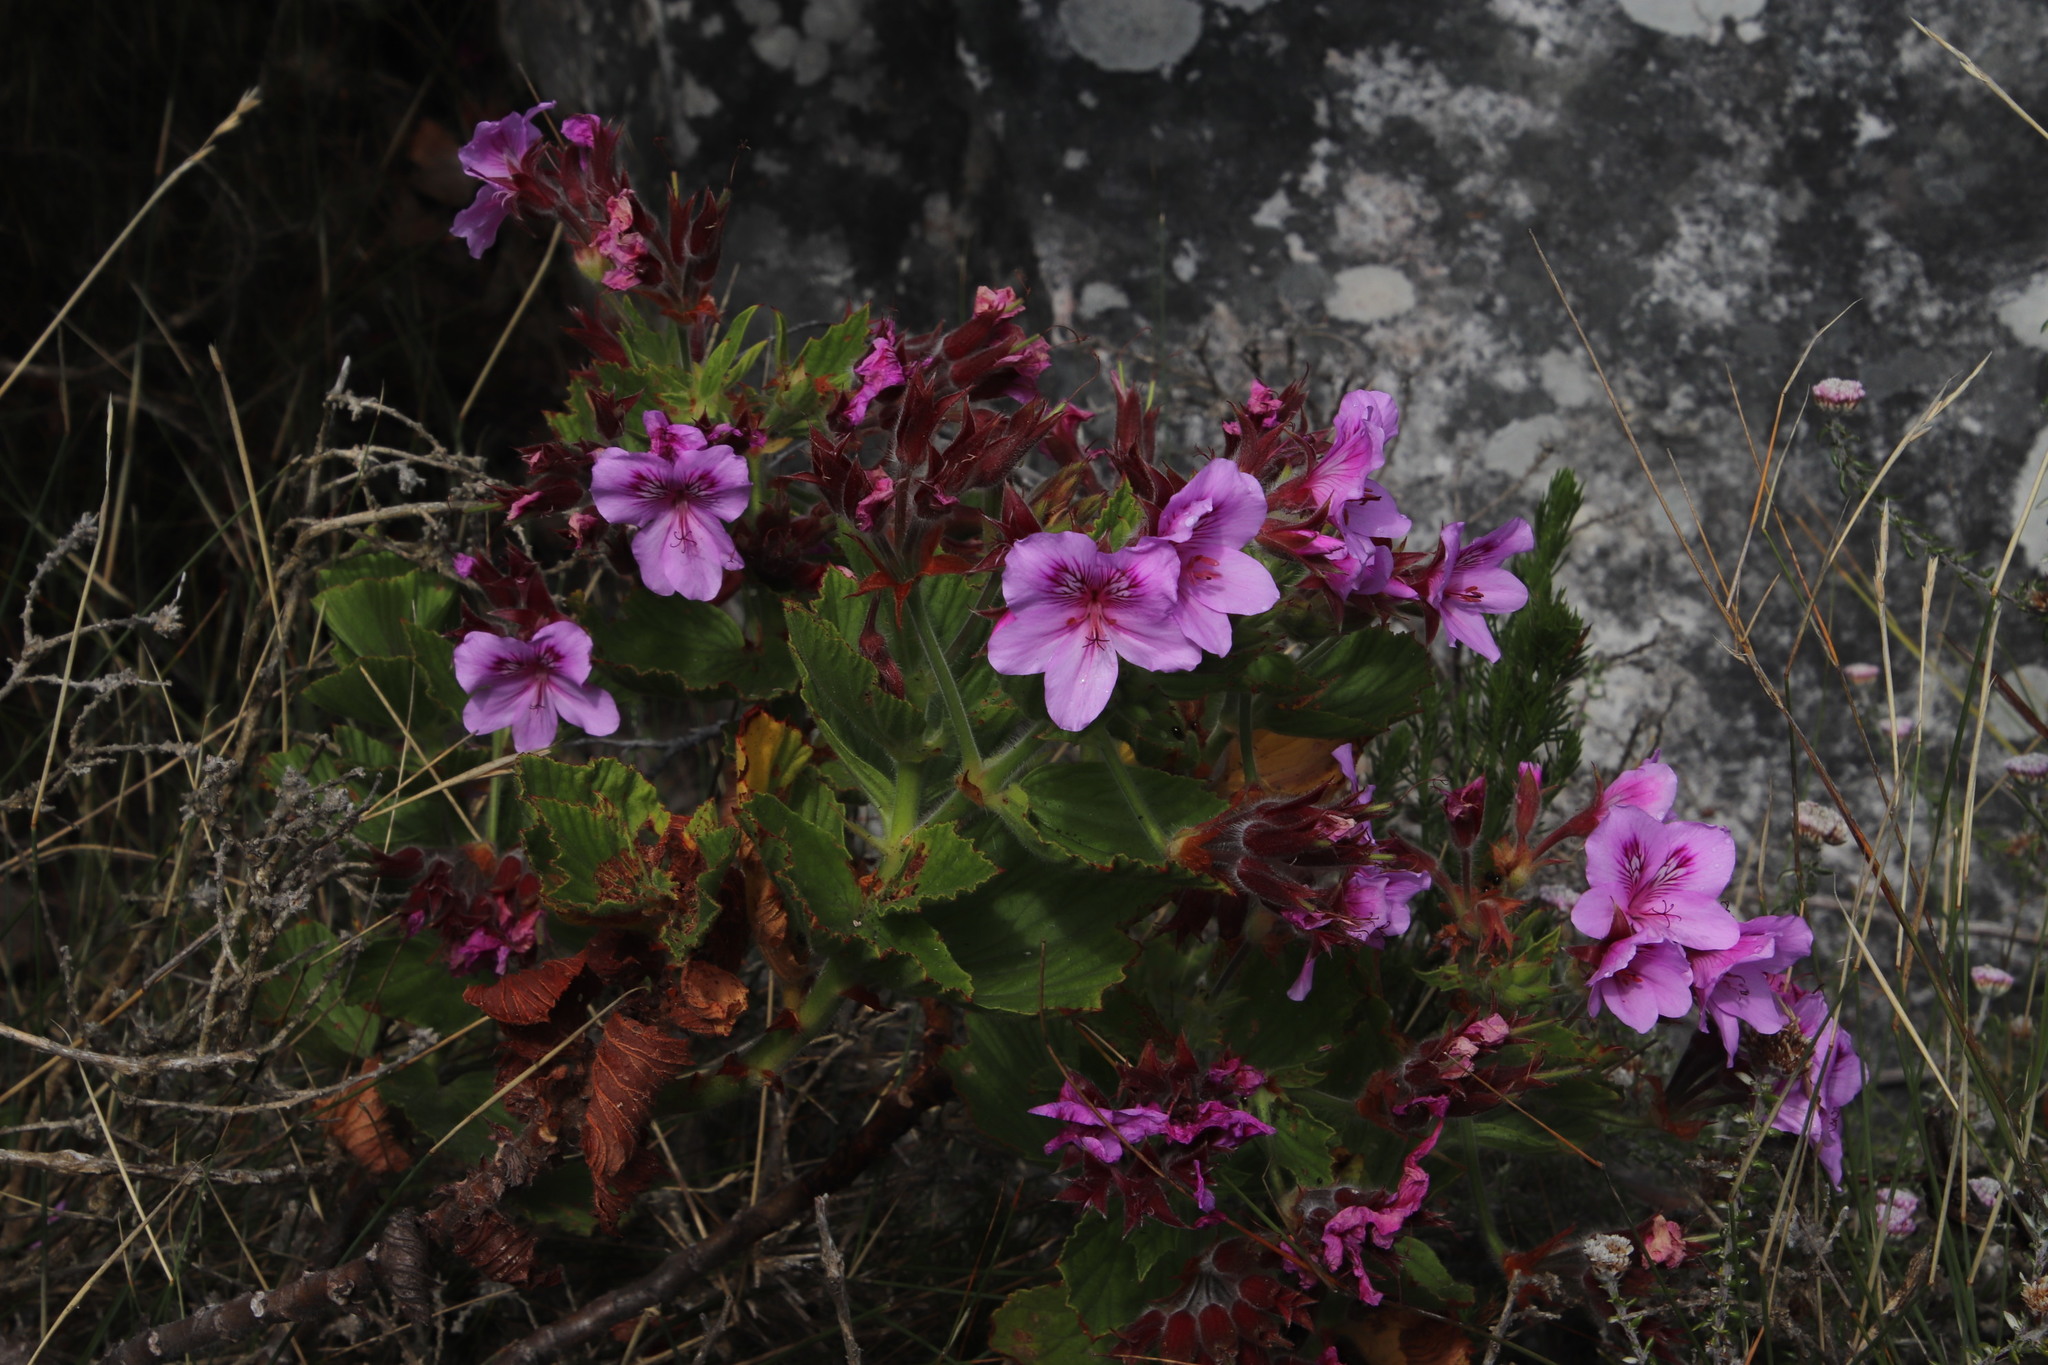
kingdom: Plantae
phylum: Tracheophyta
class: Magnoliopsida
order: Geraniales
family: Geraniaceae
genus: Pelargonium
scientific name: Pelargonium cucullatum
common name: Tree pelargonium
